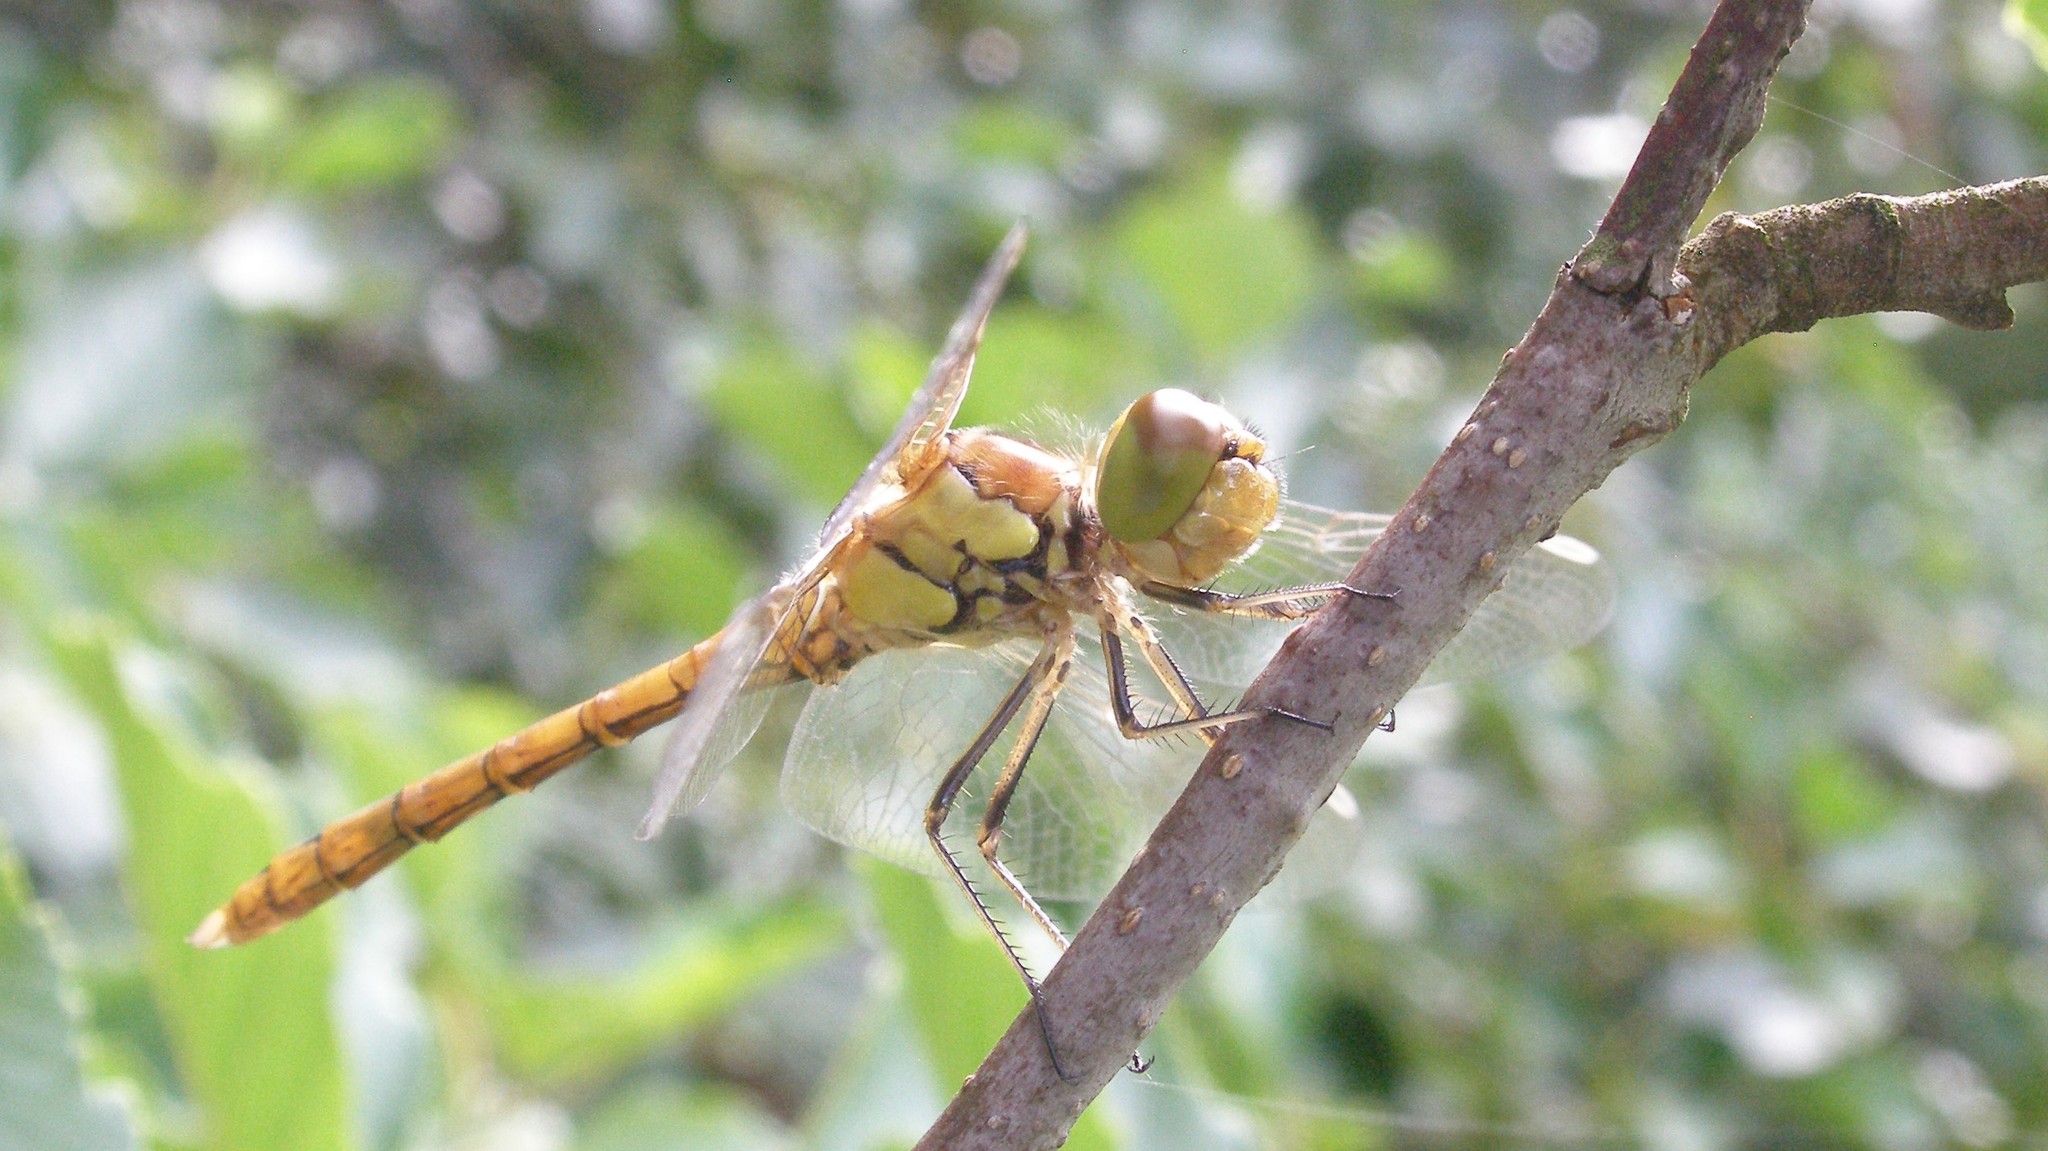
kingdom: Animalia
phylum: Arthropoda
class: Insecta
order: Odonata
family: Libellulidae
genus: Sympetrum
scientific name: Sympetrum striolatum
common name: Common darter
